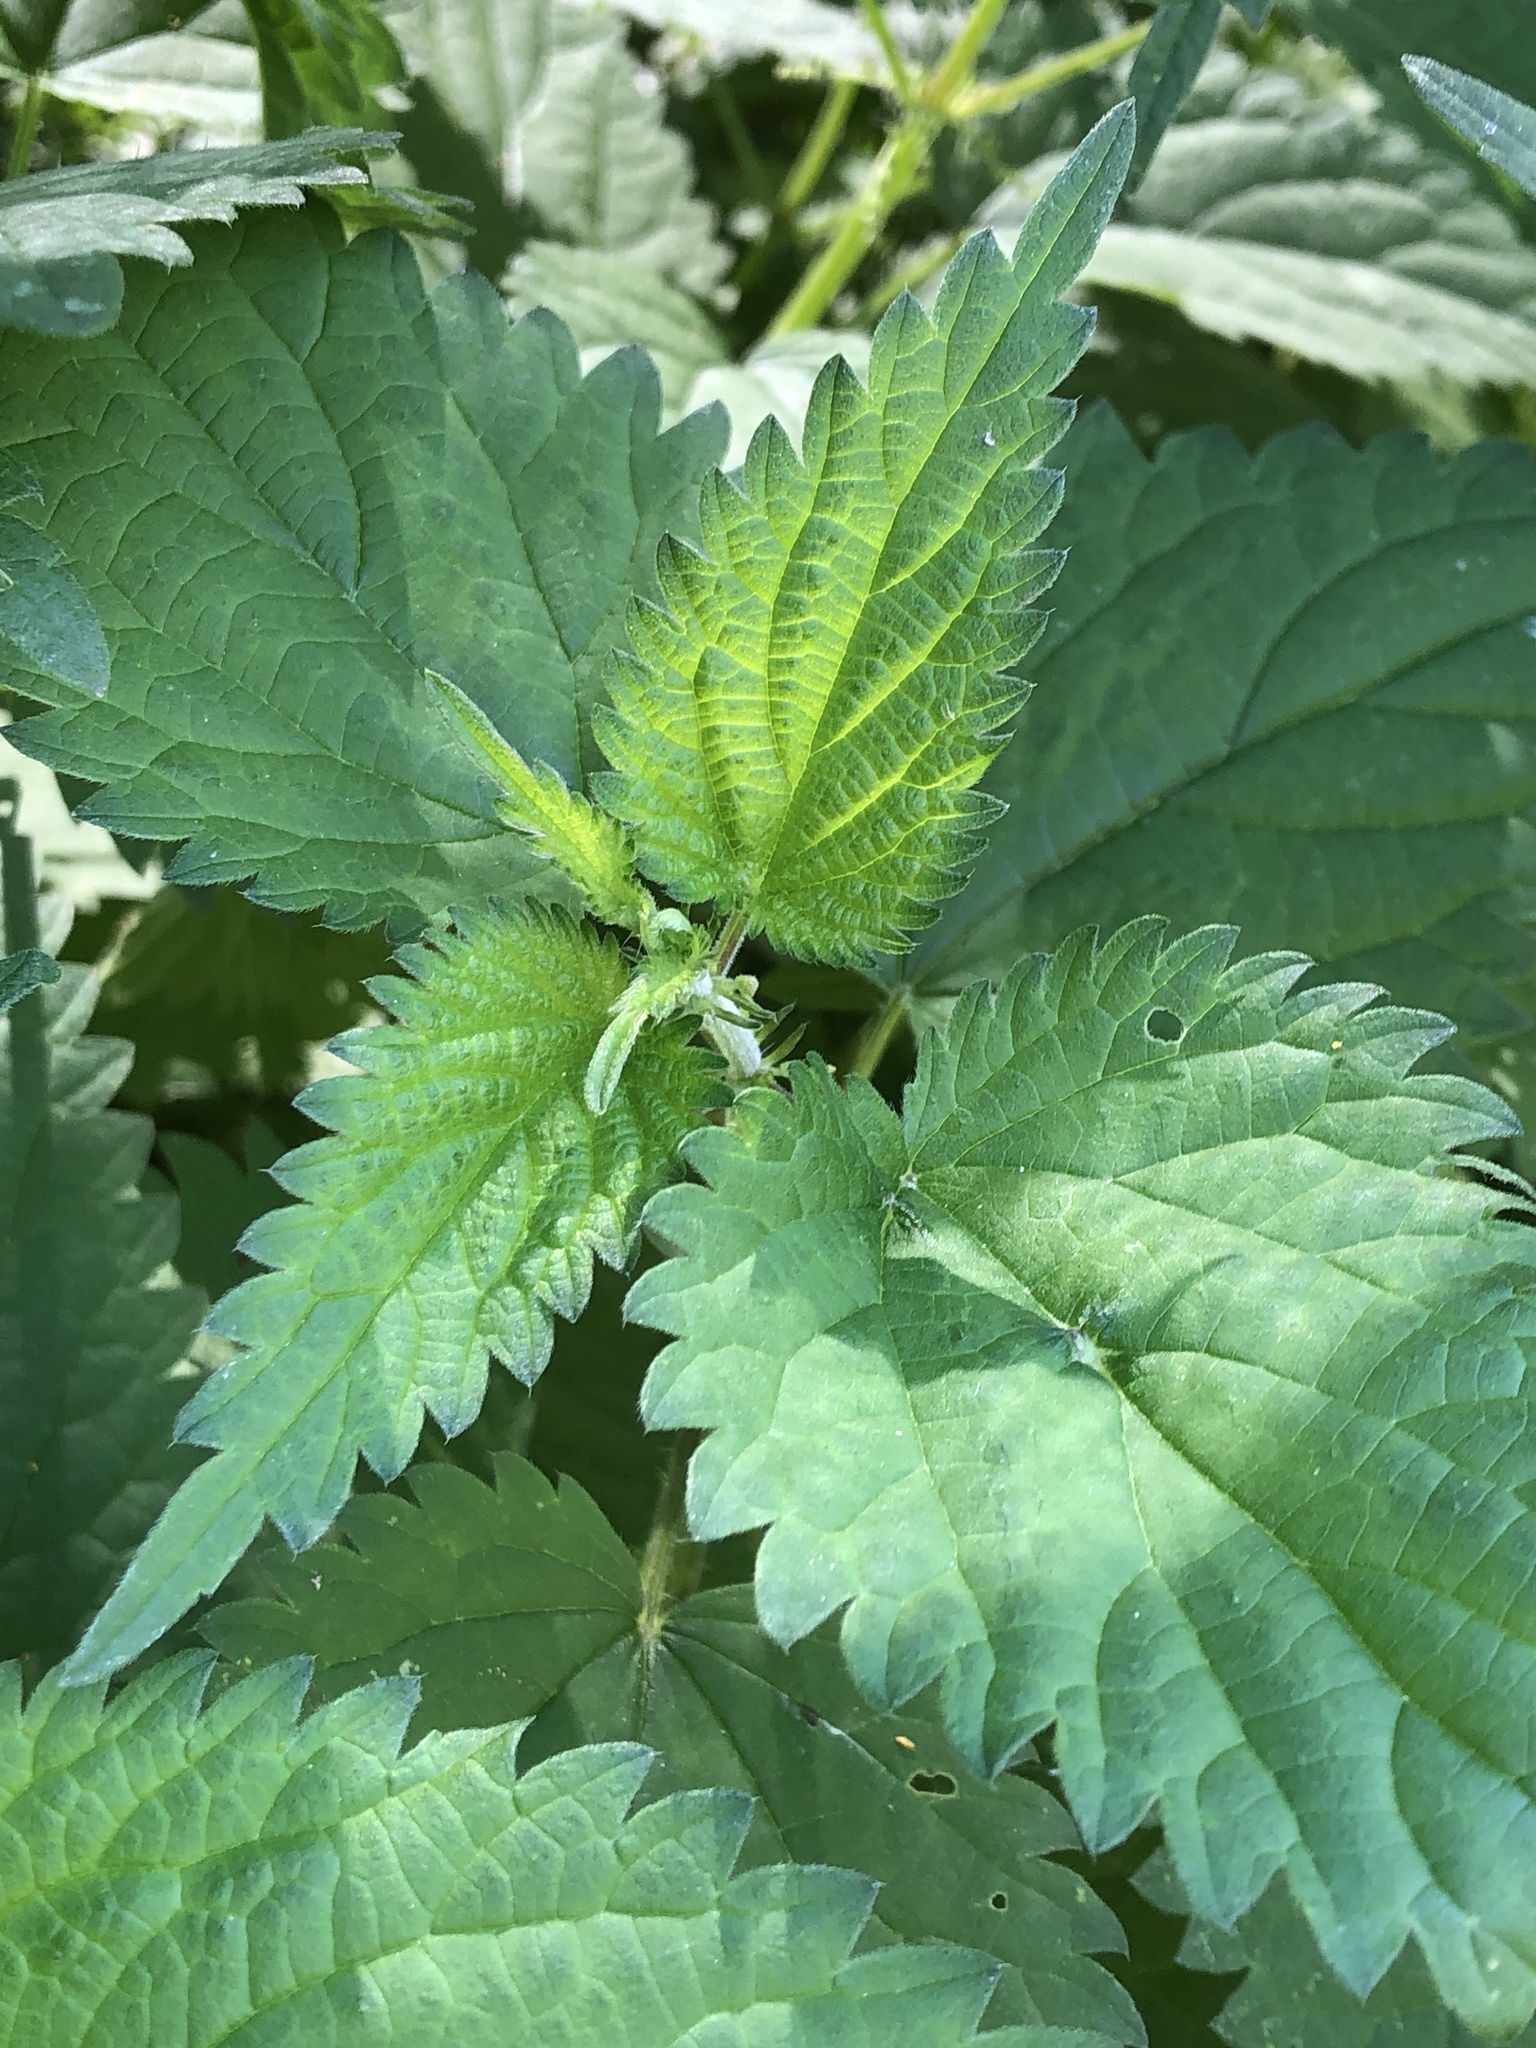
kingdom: Plantae
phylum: Tracheophyta
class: Magnoliopsida
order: Rosales
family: Urticaceae
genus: Urtica
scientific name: Urtica dioica
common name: Common nettle
